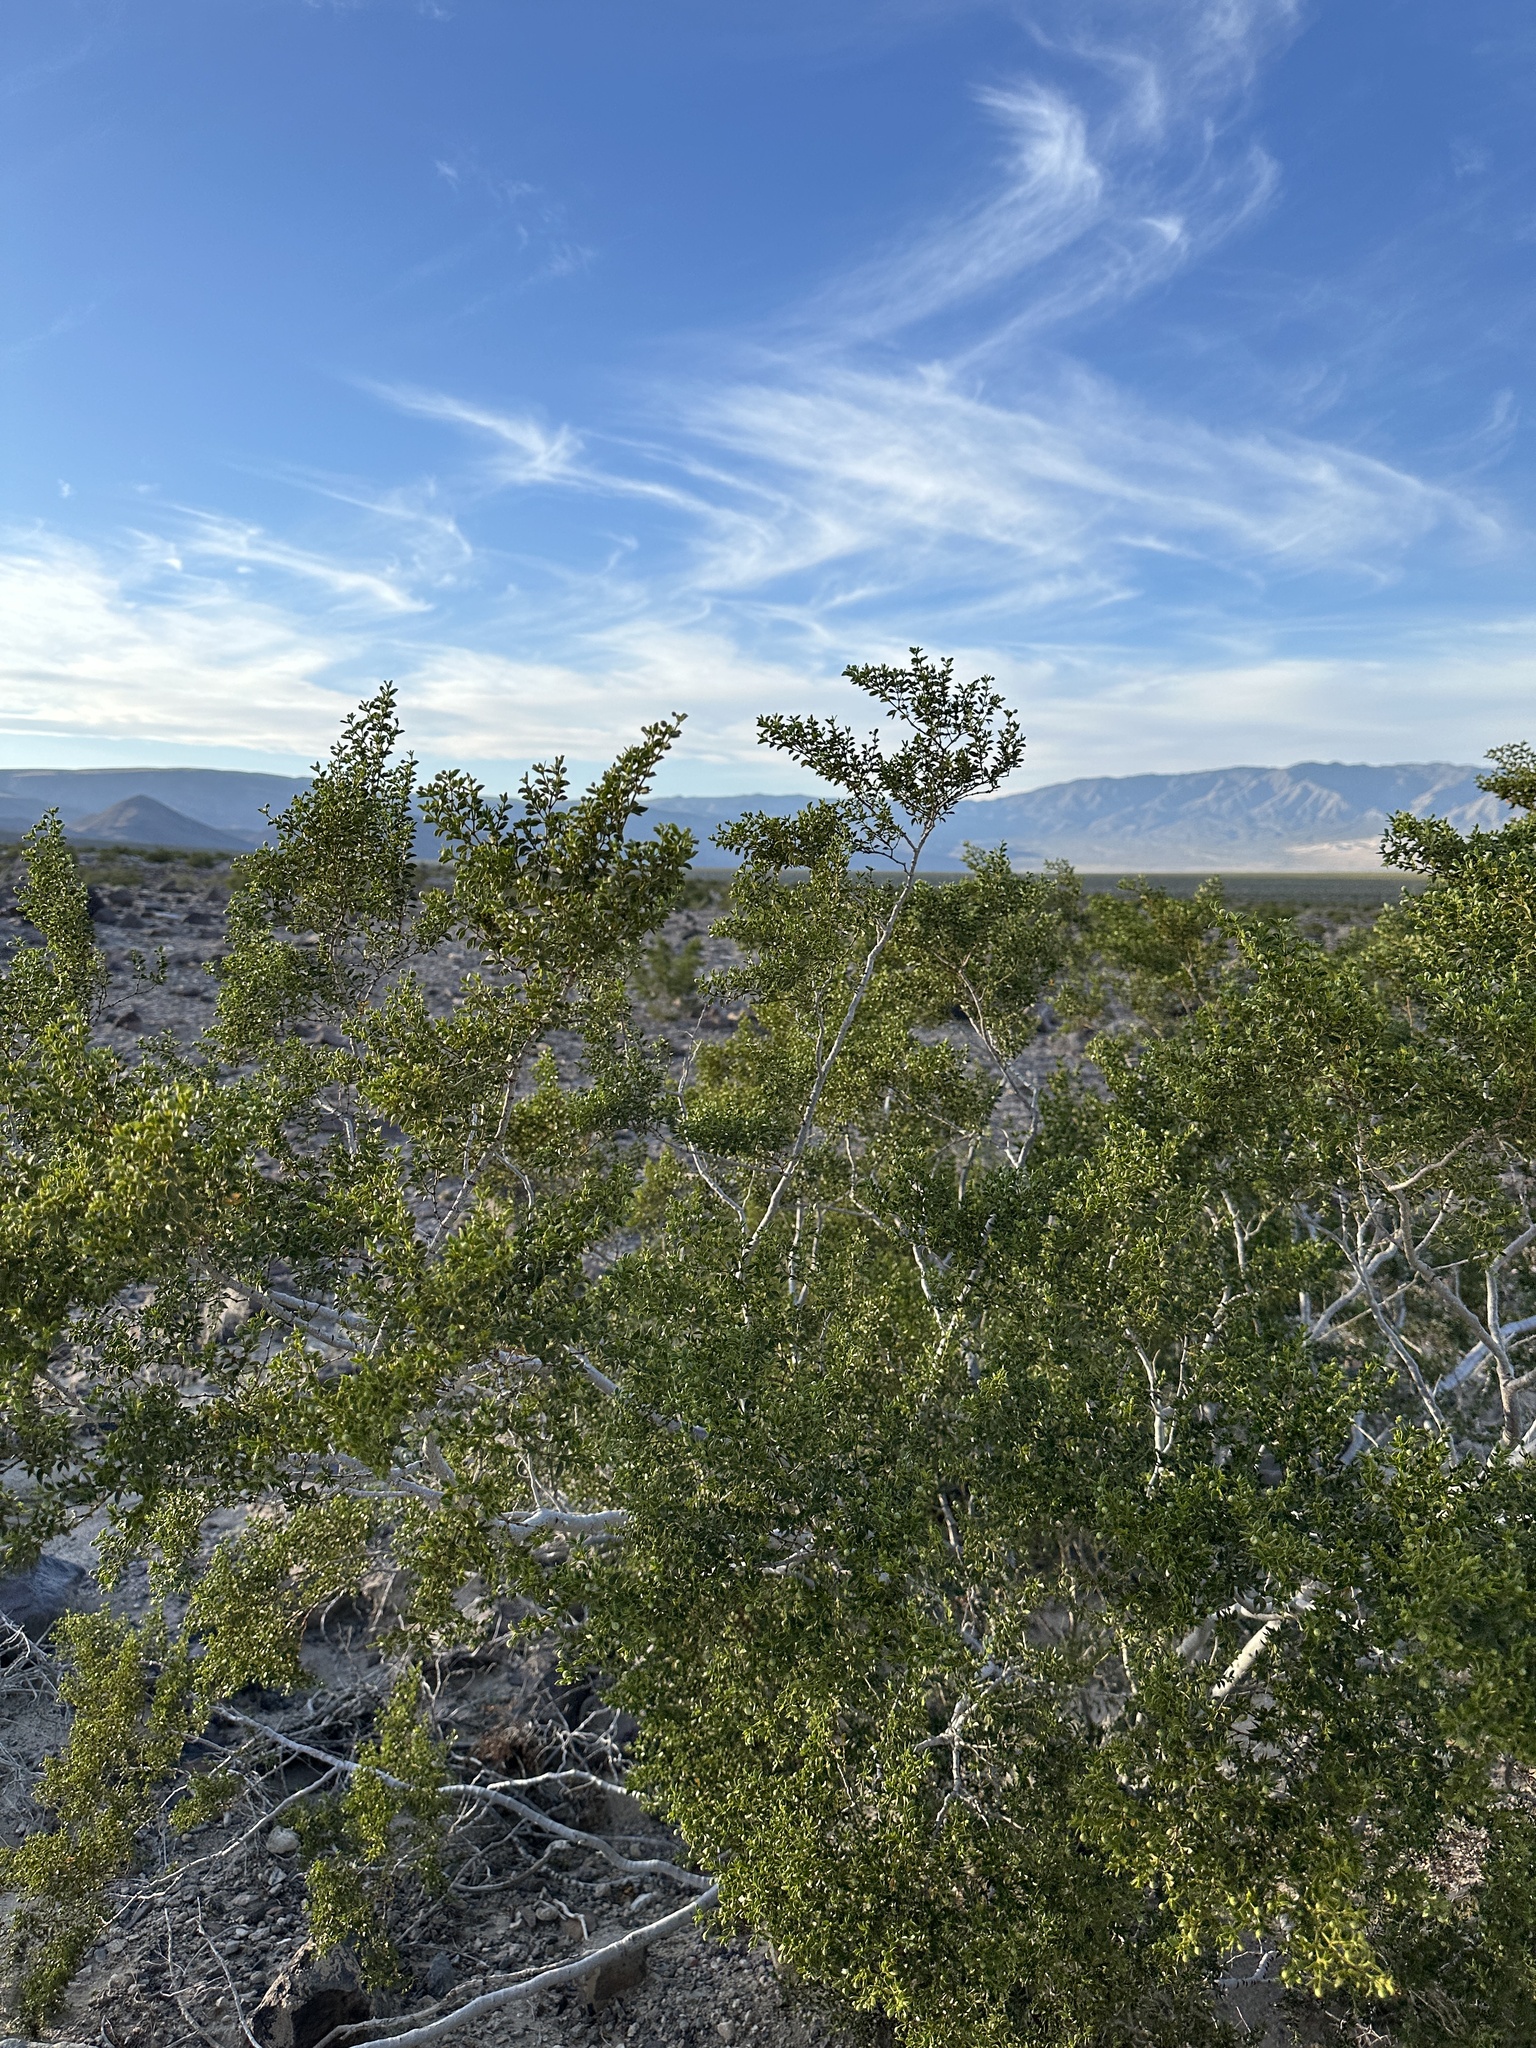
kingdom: Plantae
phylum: Tracheophyta
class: Magnoliopsida
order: Zygophyllales
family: Zygophyllaceae
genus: Larrea
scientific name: Larrea tridentata
